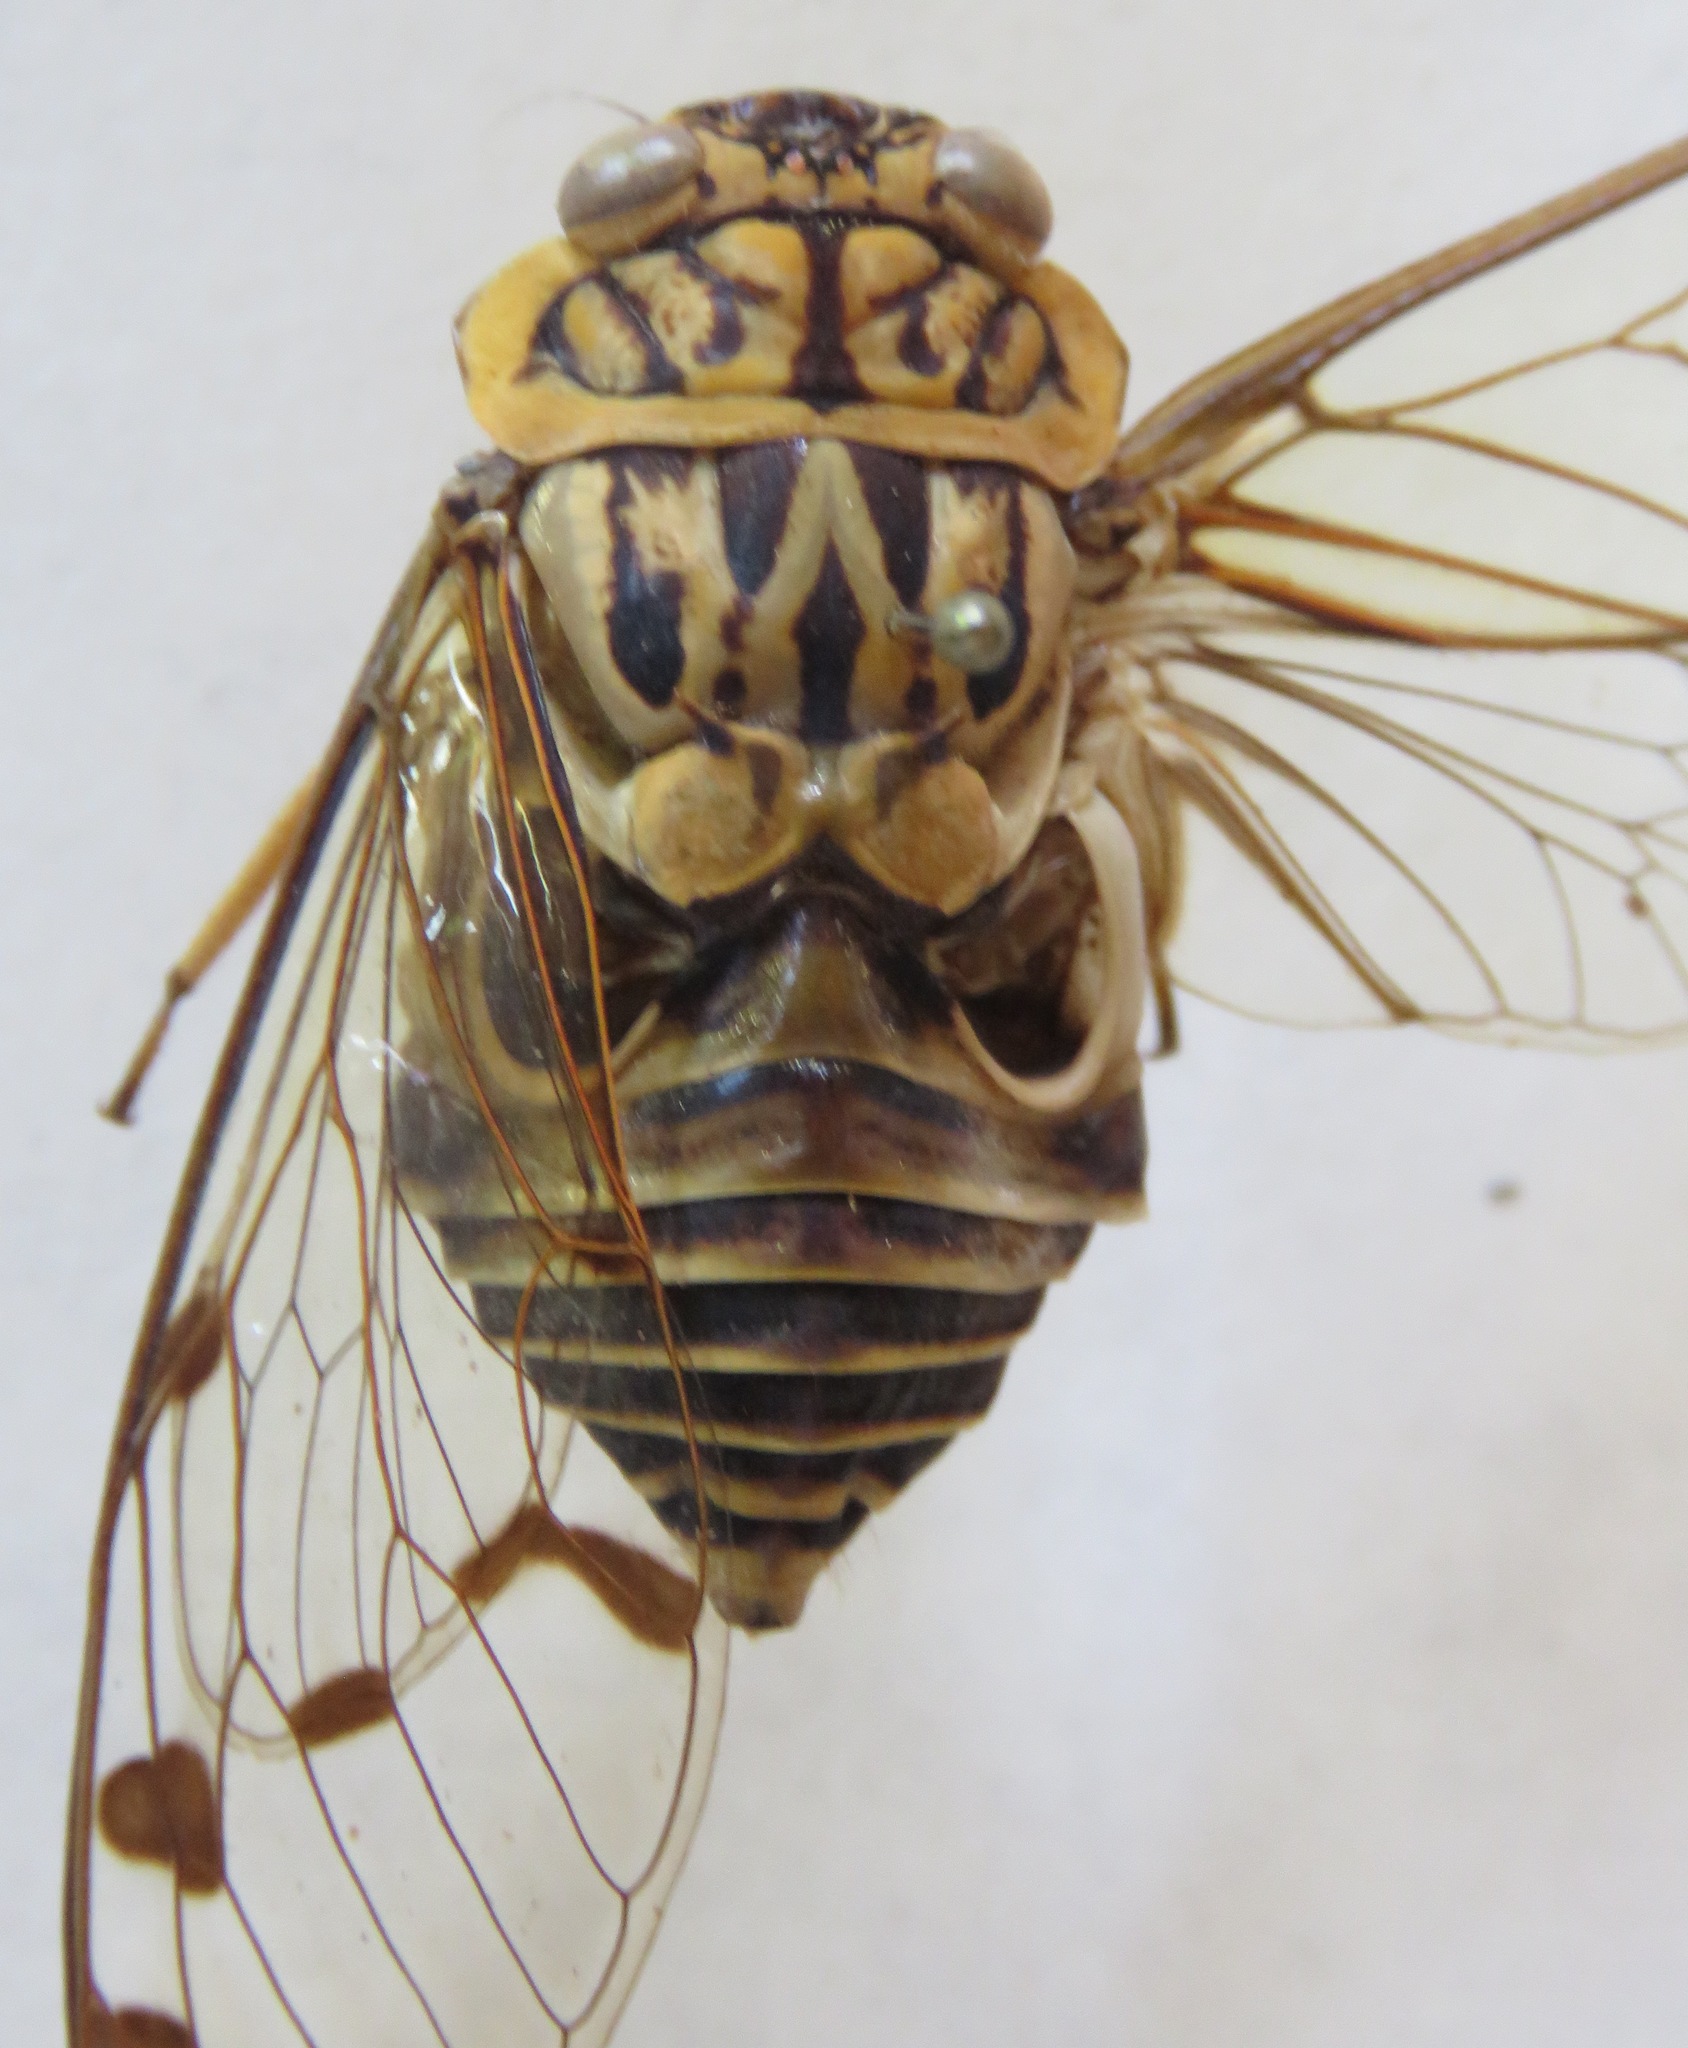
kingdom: Animalia
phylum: Arthropoda
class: Insecta
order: Hemiptera
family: Cicadidae
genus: Zammara
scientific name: Zammara smaragdula
